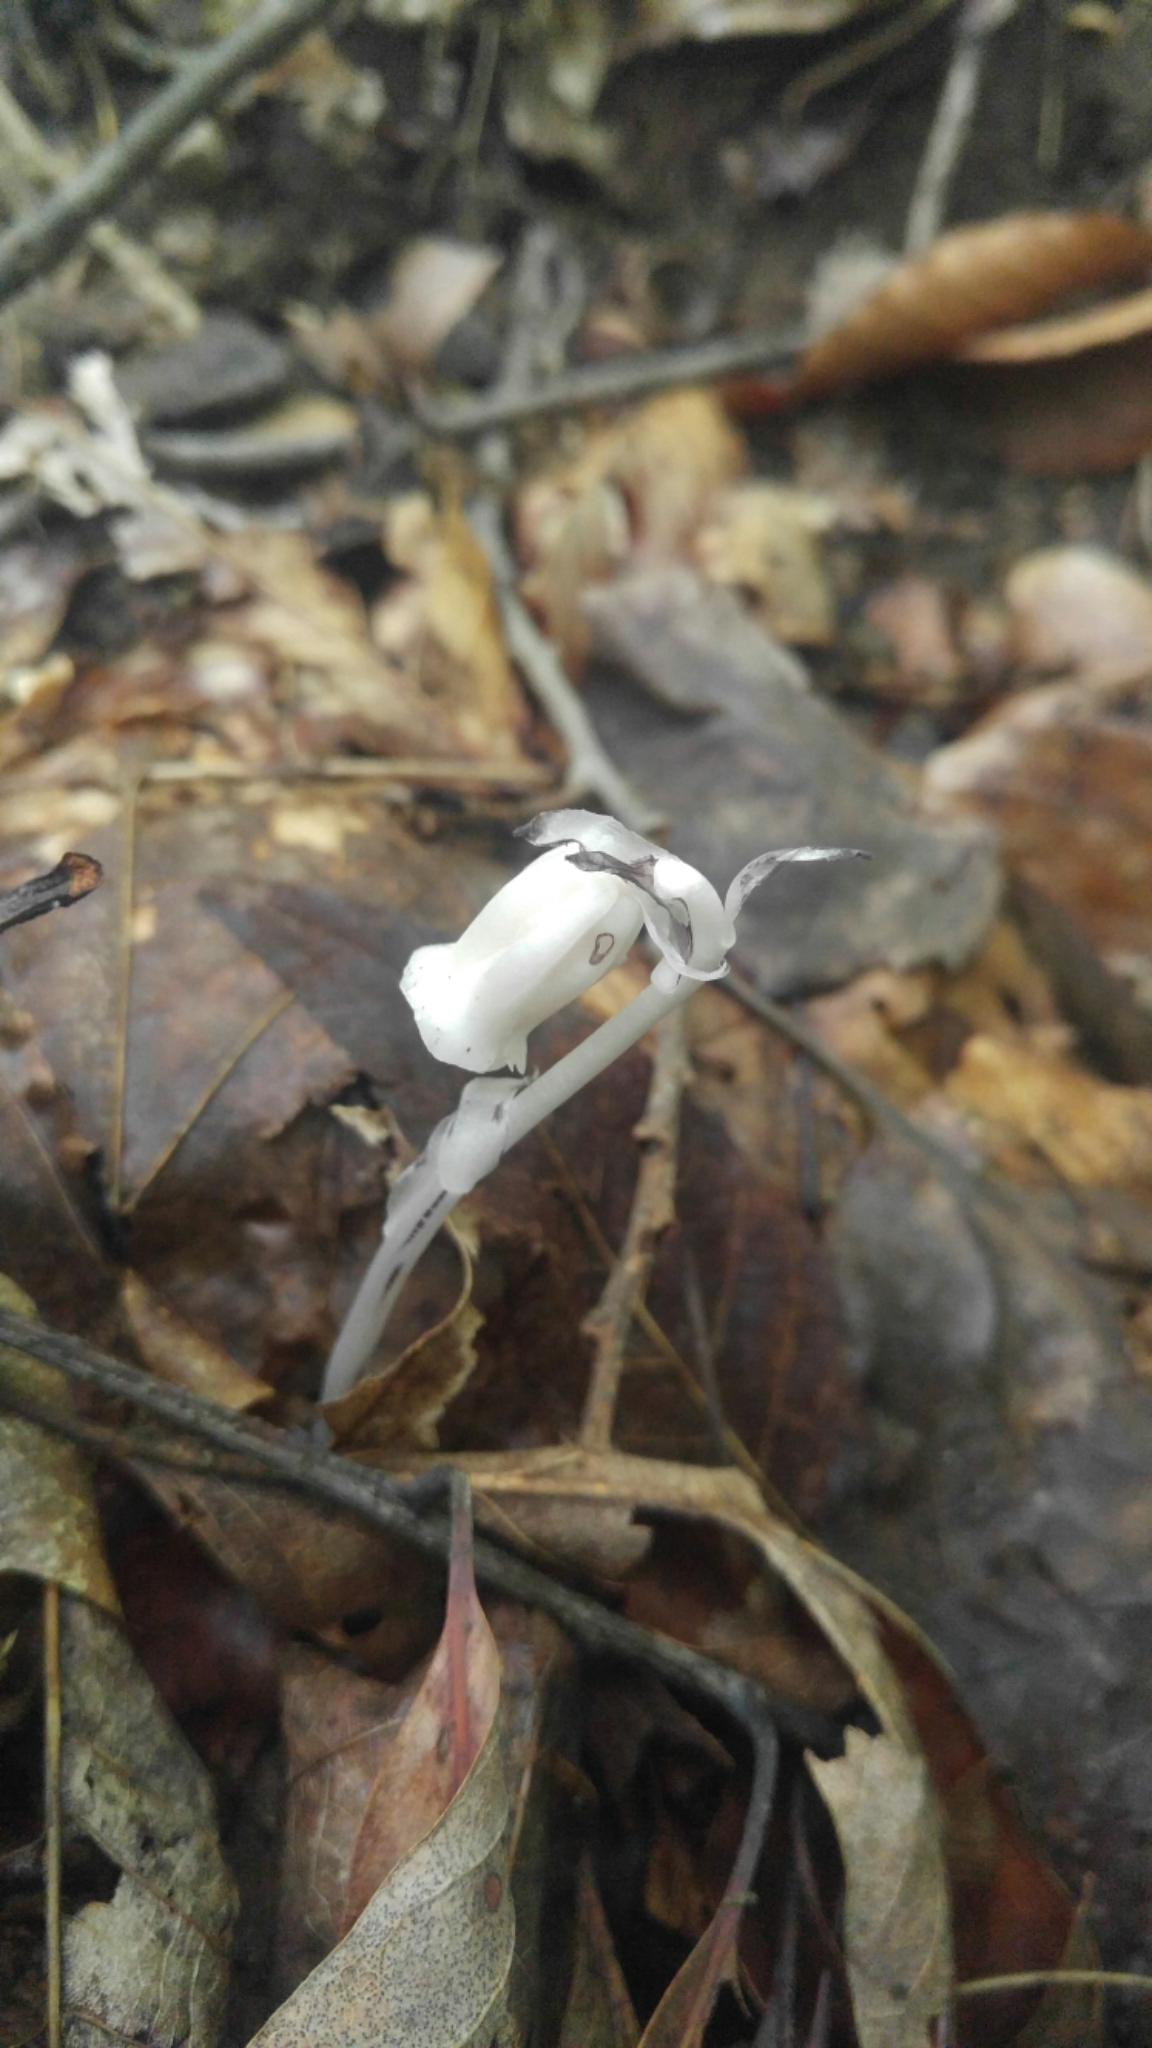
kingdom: Plantae
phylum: Tracheophyta
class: Magnoliopsida
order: Ericales
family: Ericaceae
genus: Monotropa
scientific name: Monotropa uniflora
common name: Convulsion root
